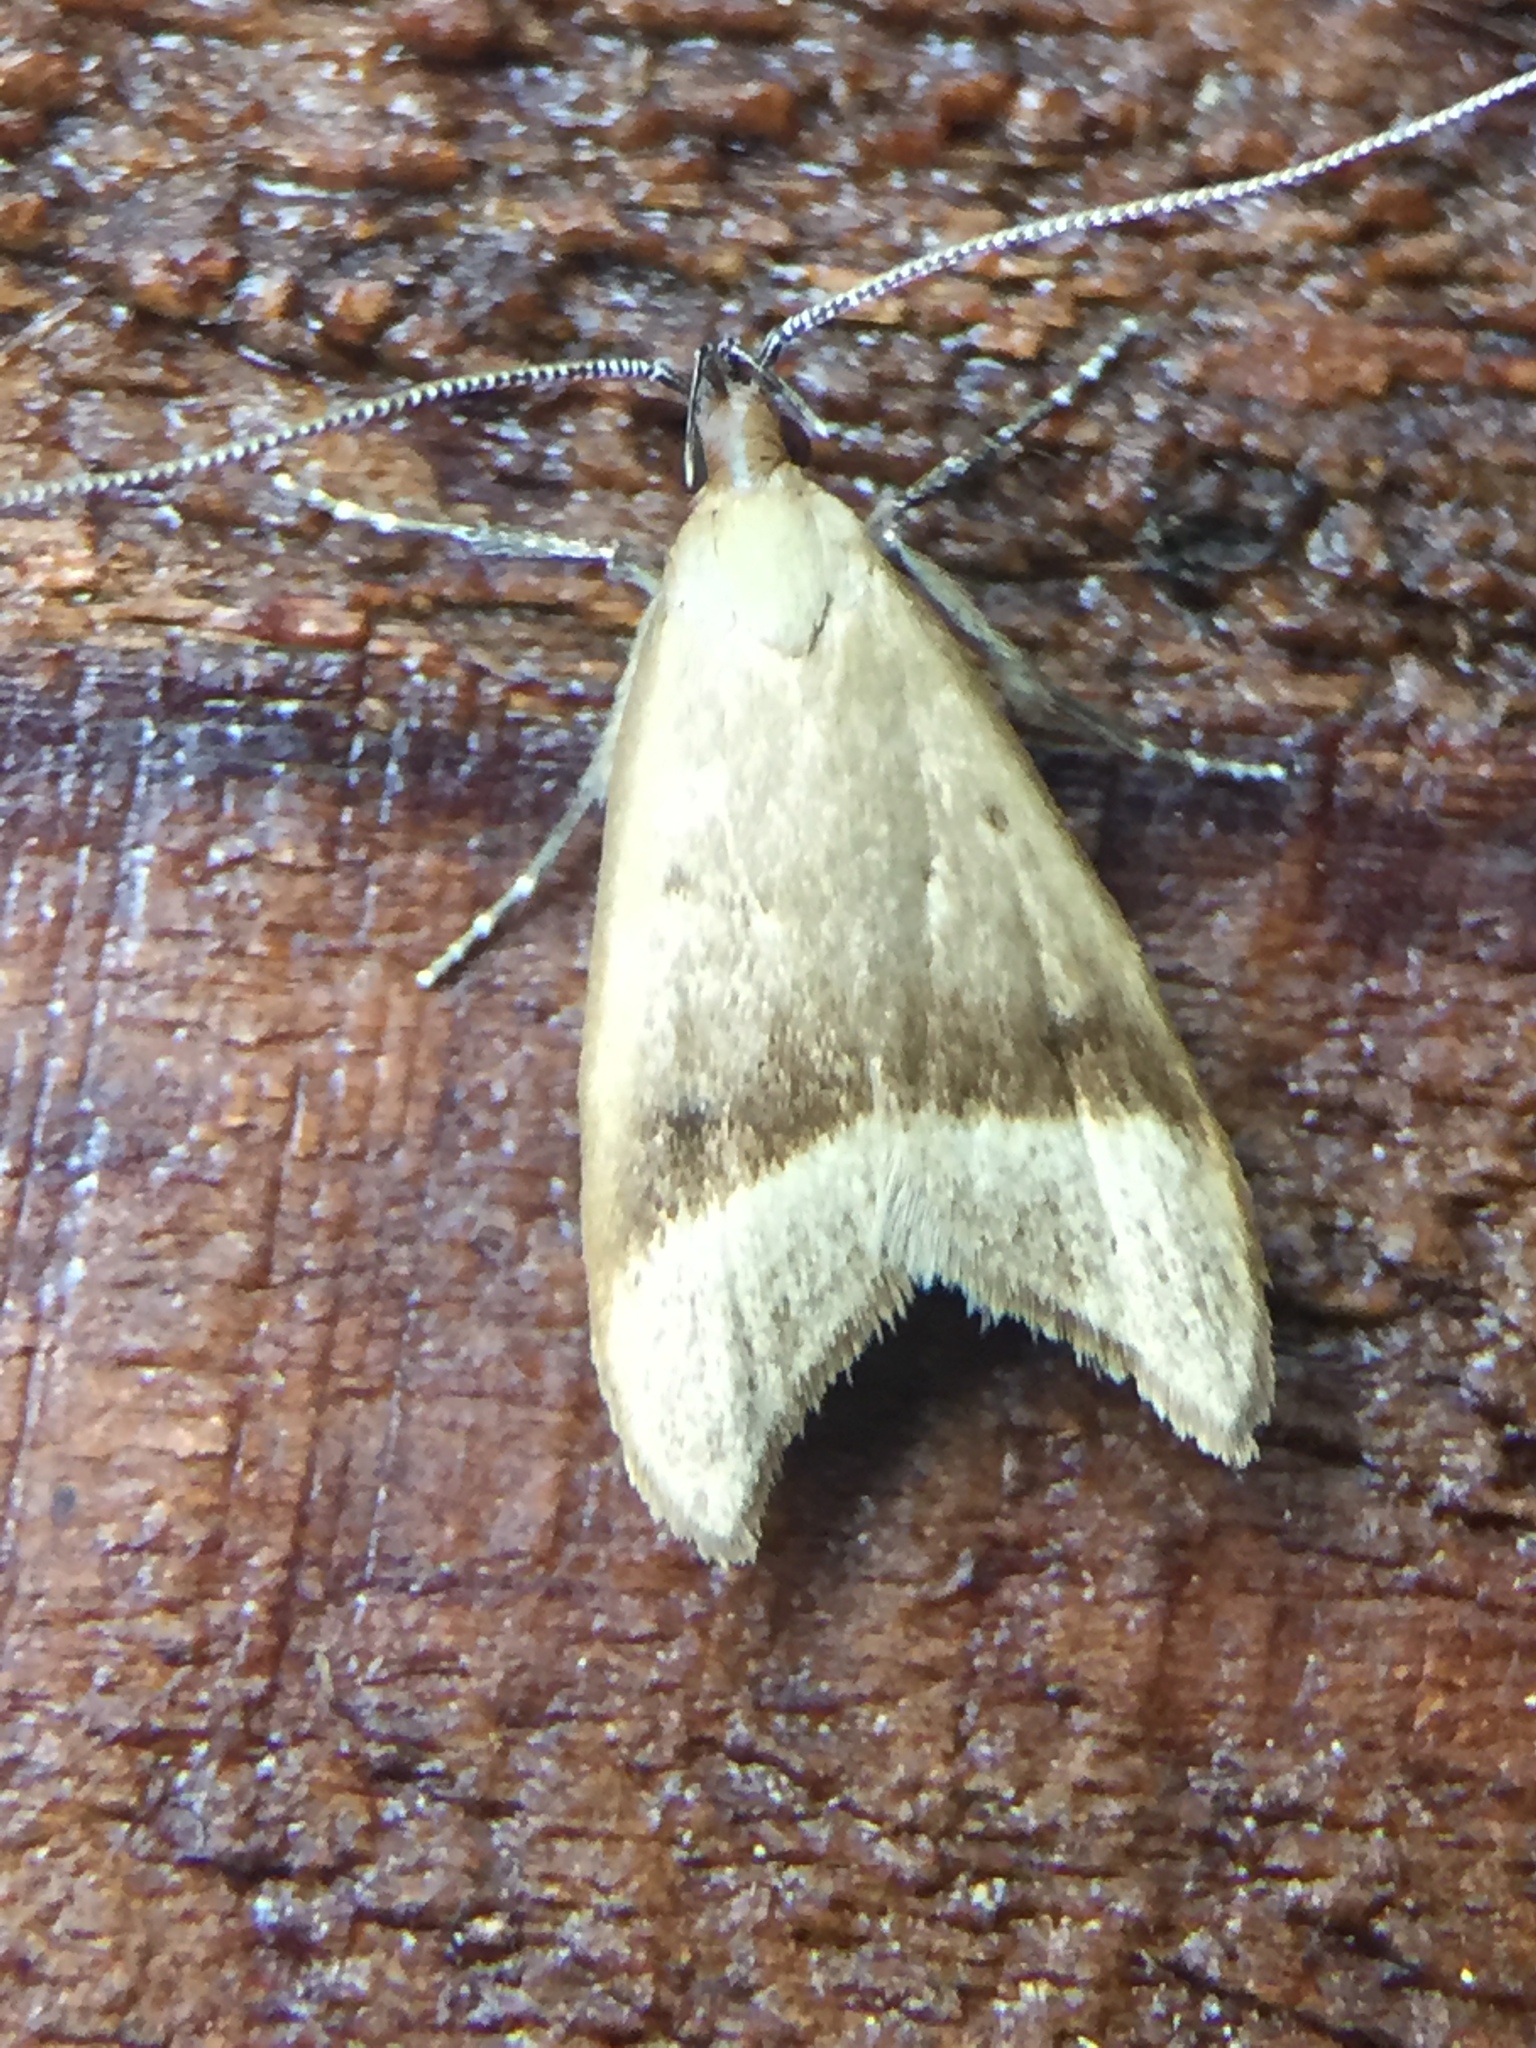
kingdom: Animalia
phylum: Arthropoda
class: Insecta
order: Lepidoptera
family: Oecophoridae
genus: Gymnobathra
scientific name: Gymnobathra hyetodes
